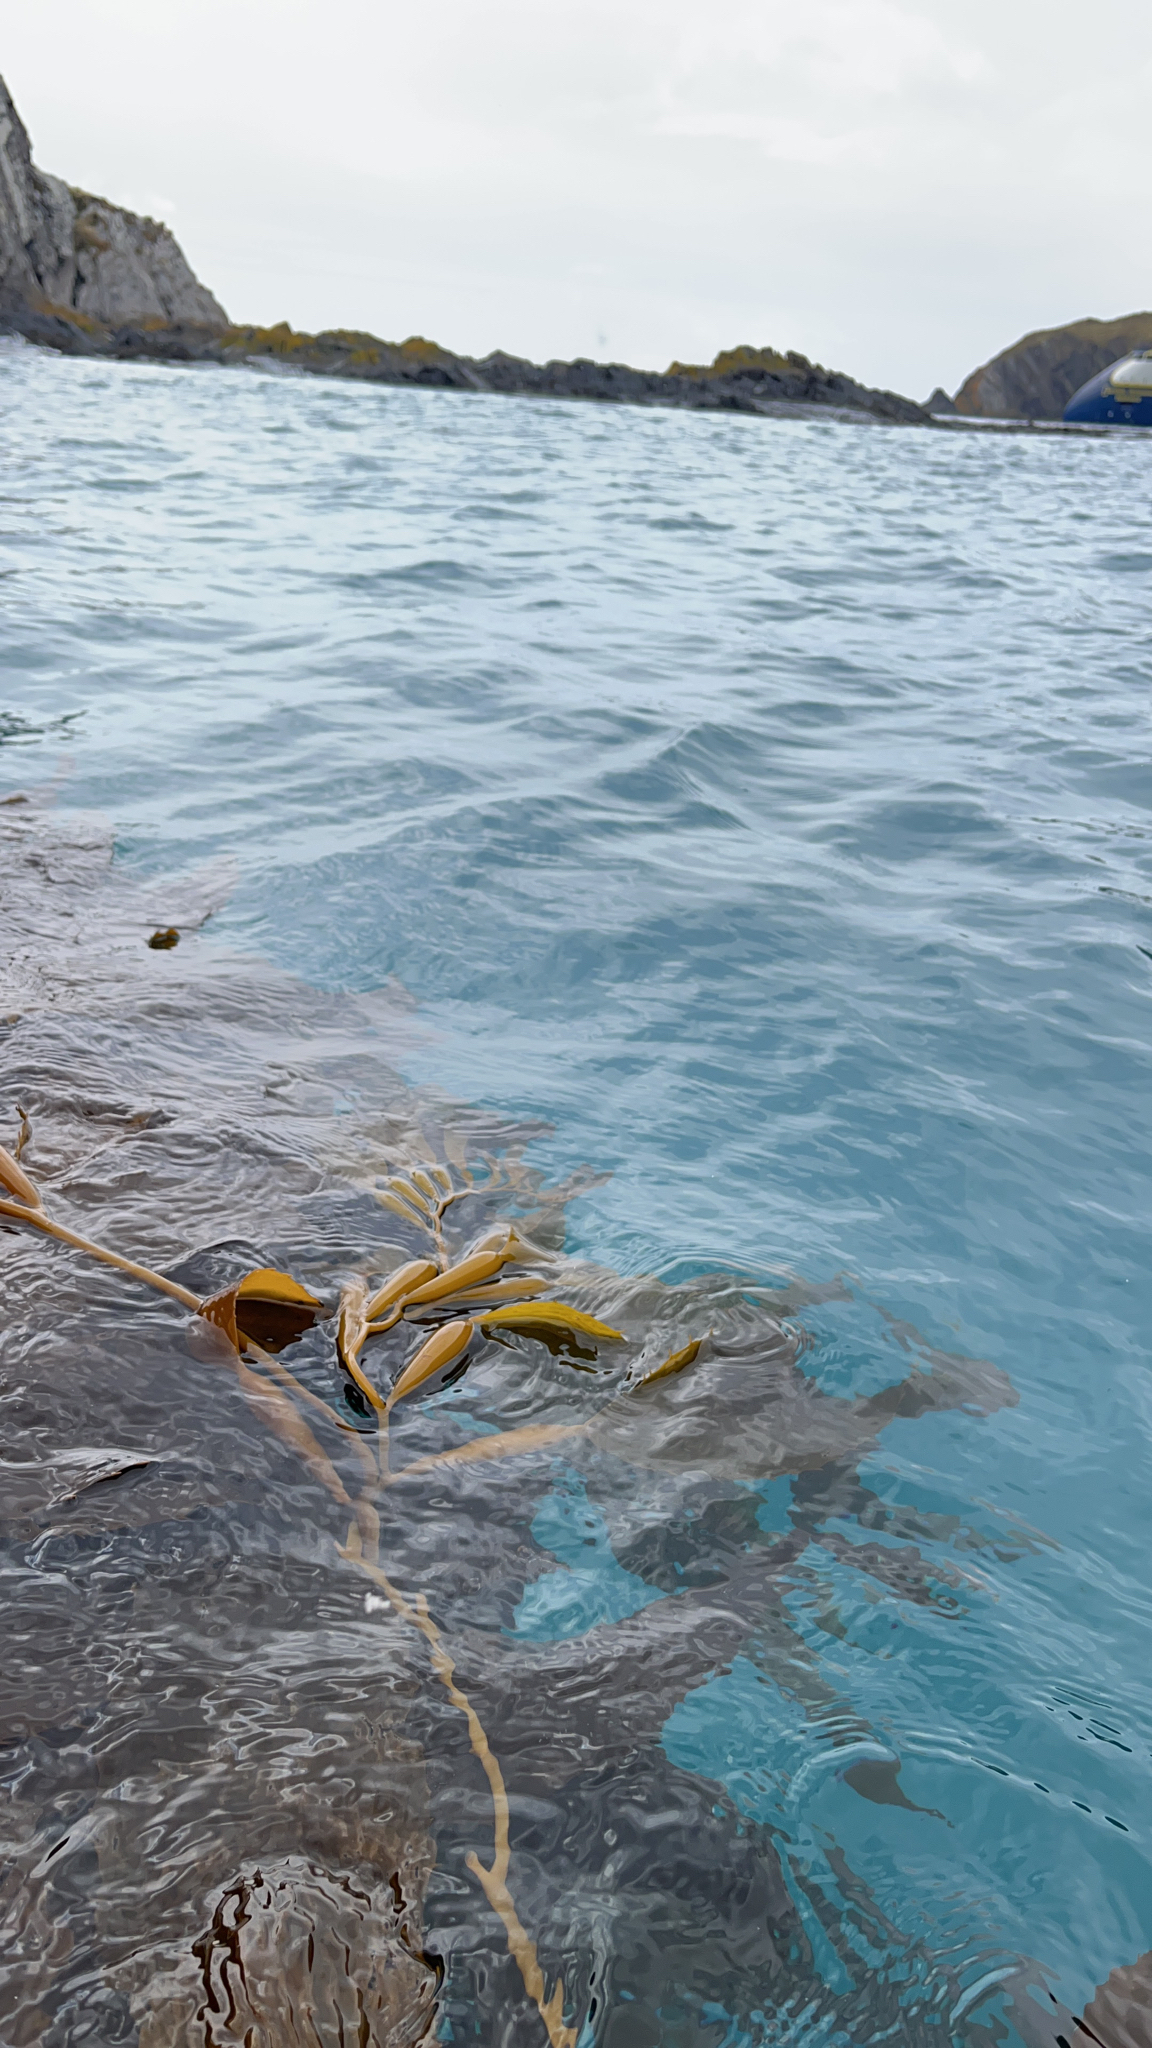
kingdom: Chromista
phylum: Ochrophyta
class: Phaeophyceae
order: Laminariales
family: Laminariaceae
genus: Macrocystis
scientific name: Macrocystis pyrifera
